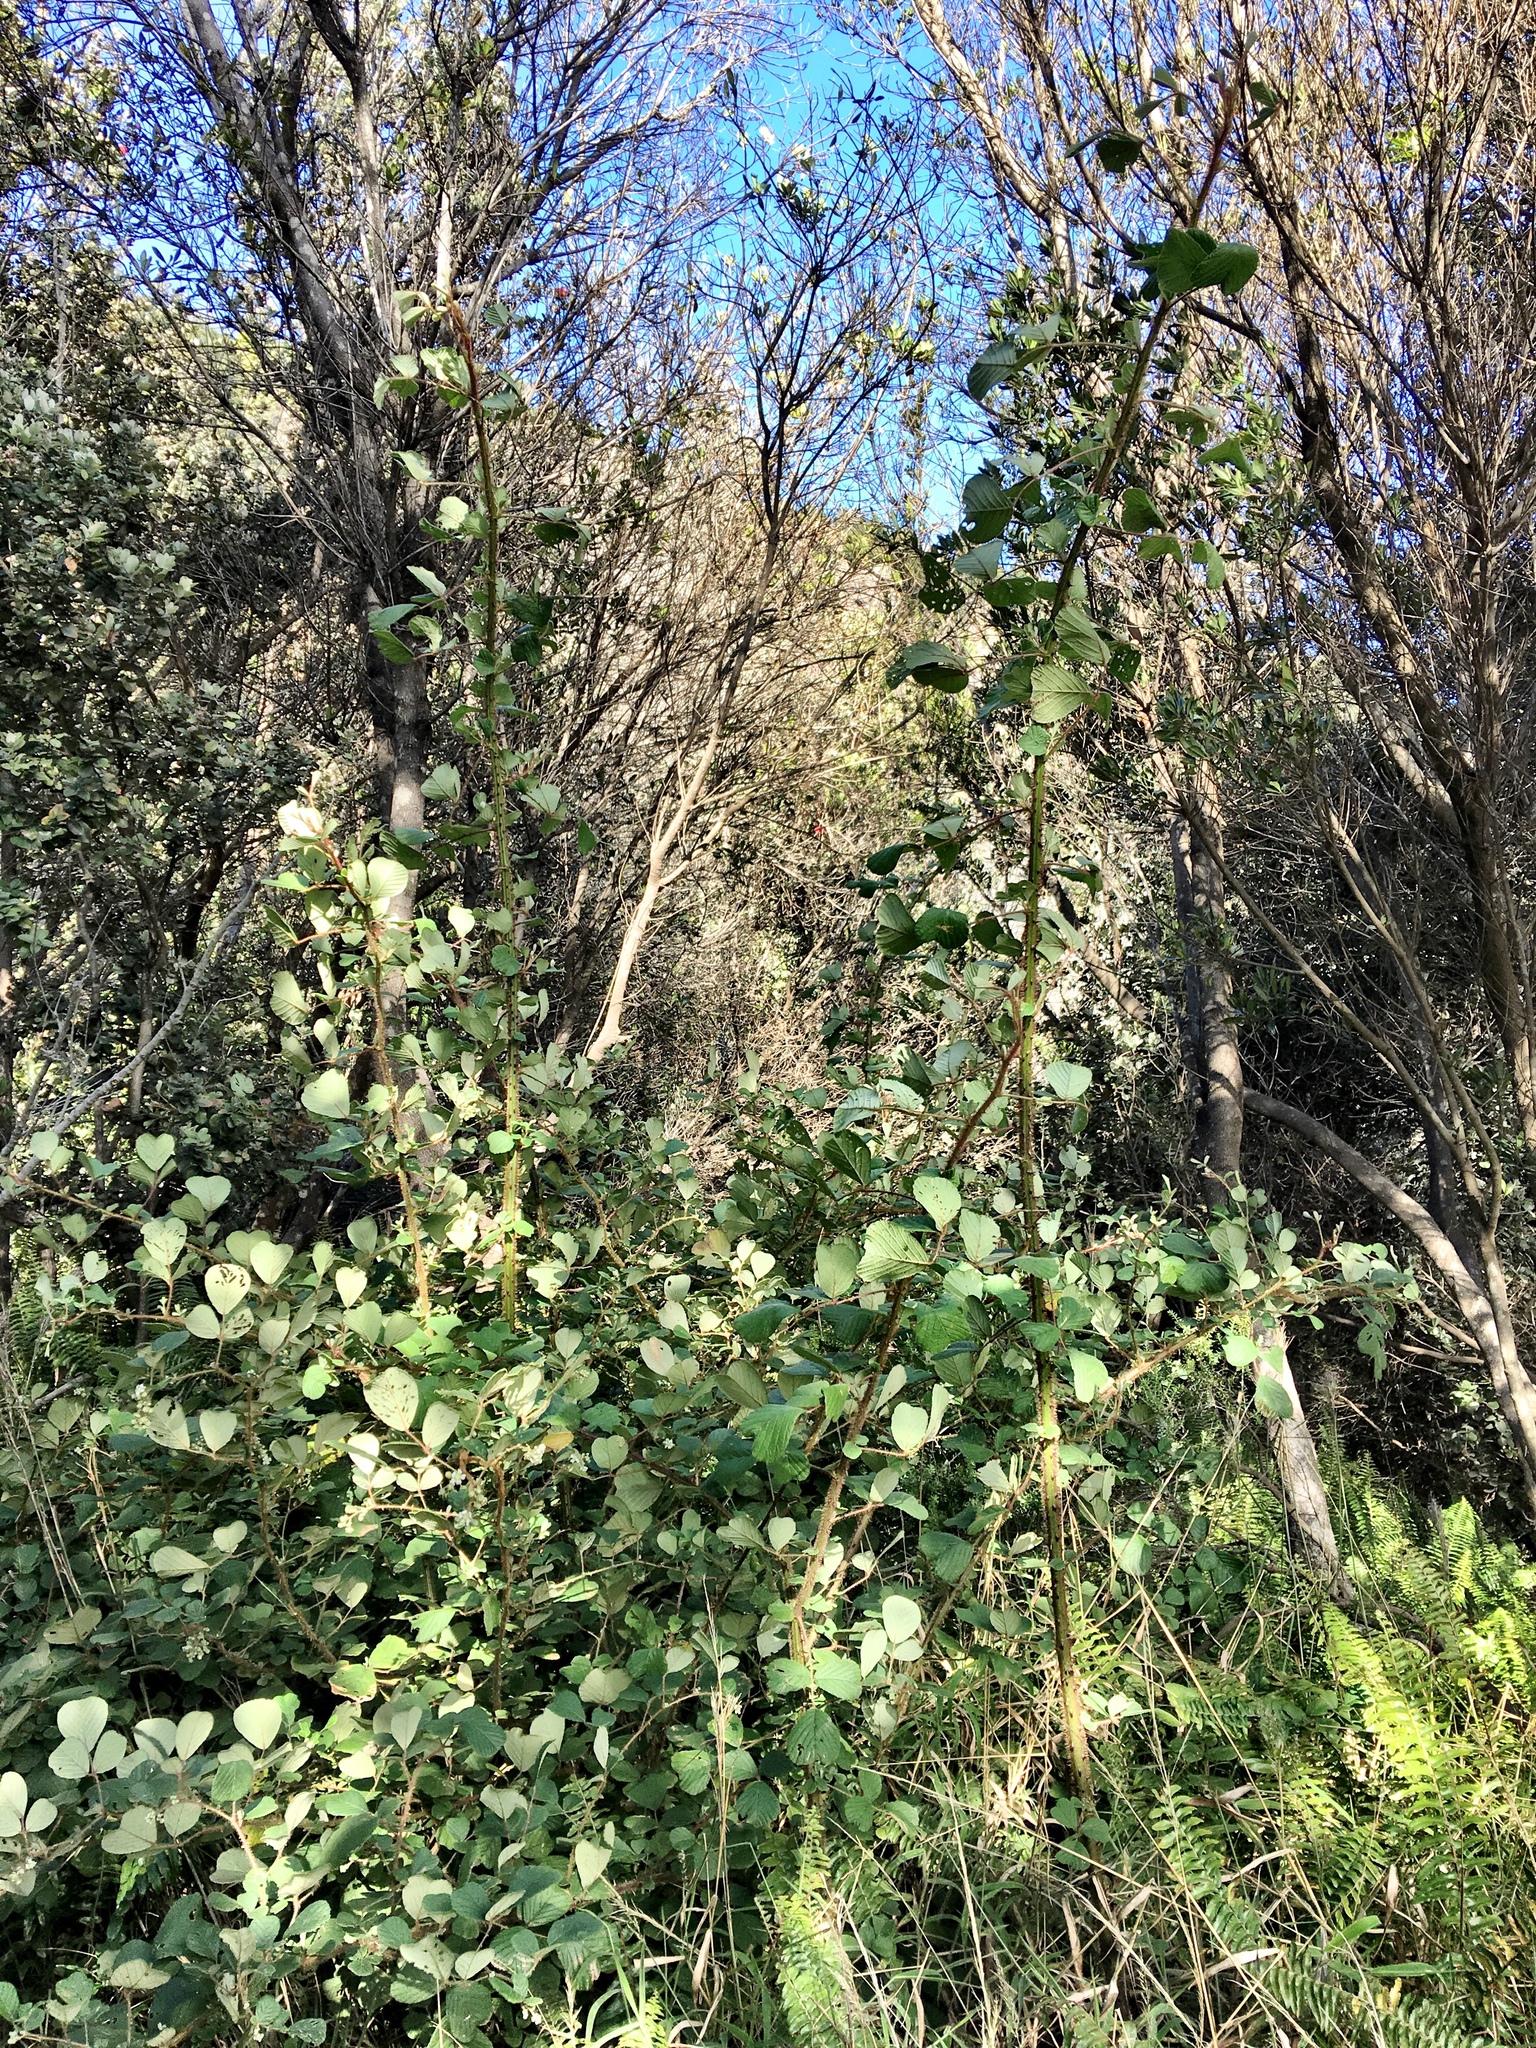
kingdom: Plantae
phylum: Tracheophyta
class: Magnoliopsida
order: Rosales
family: Rosaceae
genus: Rubus
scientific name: Rubus ellipticus
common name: Cheeseberry
